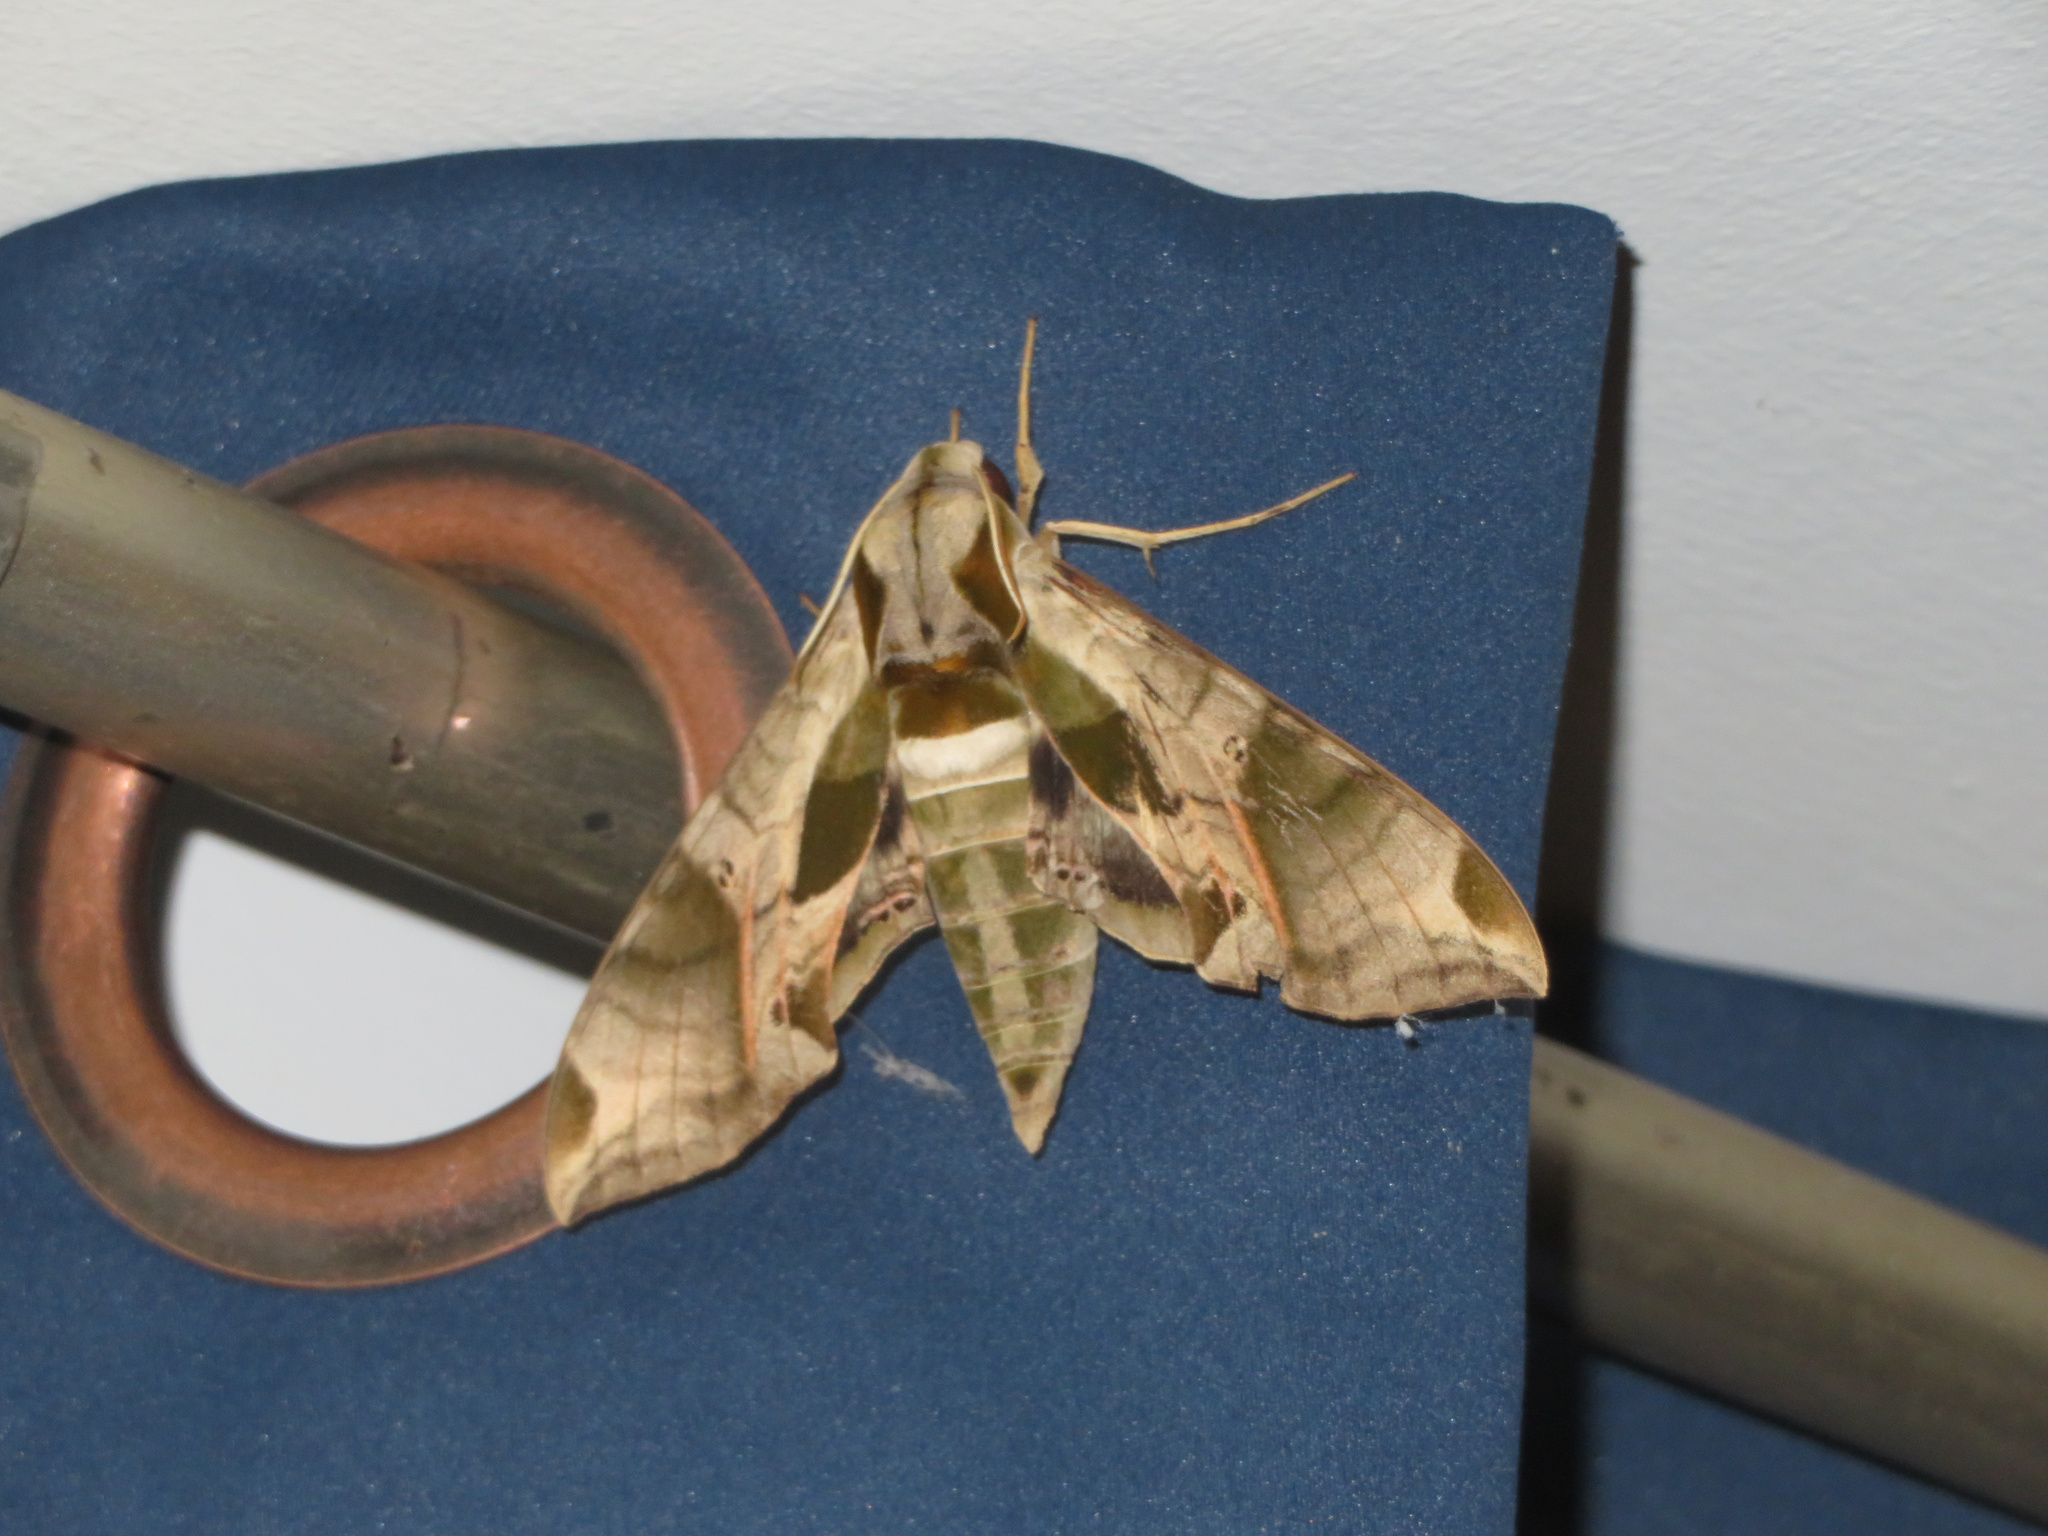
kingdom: Animalia
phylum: Arthropoda
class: Insecta
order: Lepidoptera
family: Sphingidae
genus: Eumorpha
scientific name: Eumorpha pandorus
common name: Pandora sphinx
